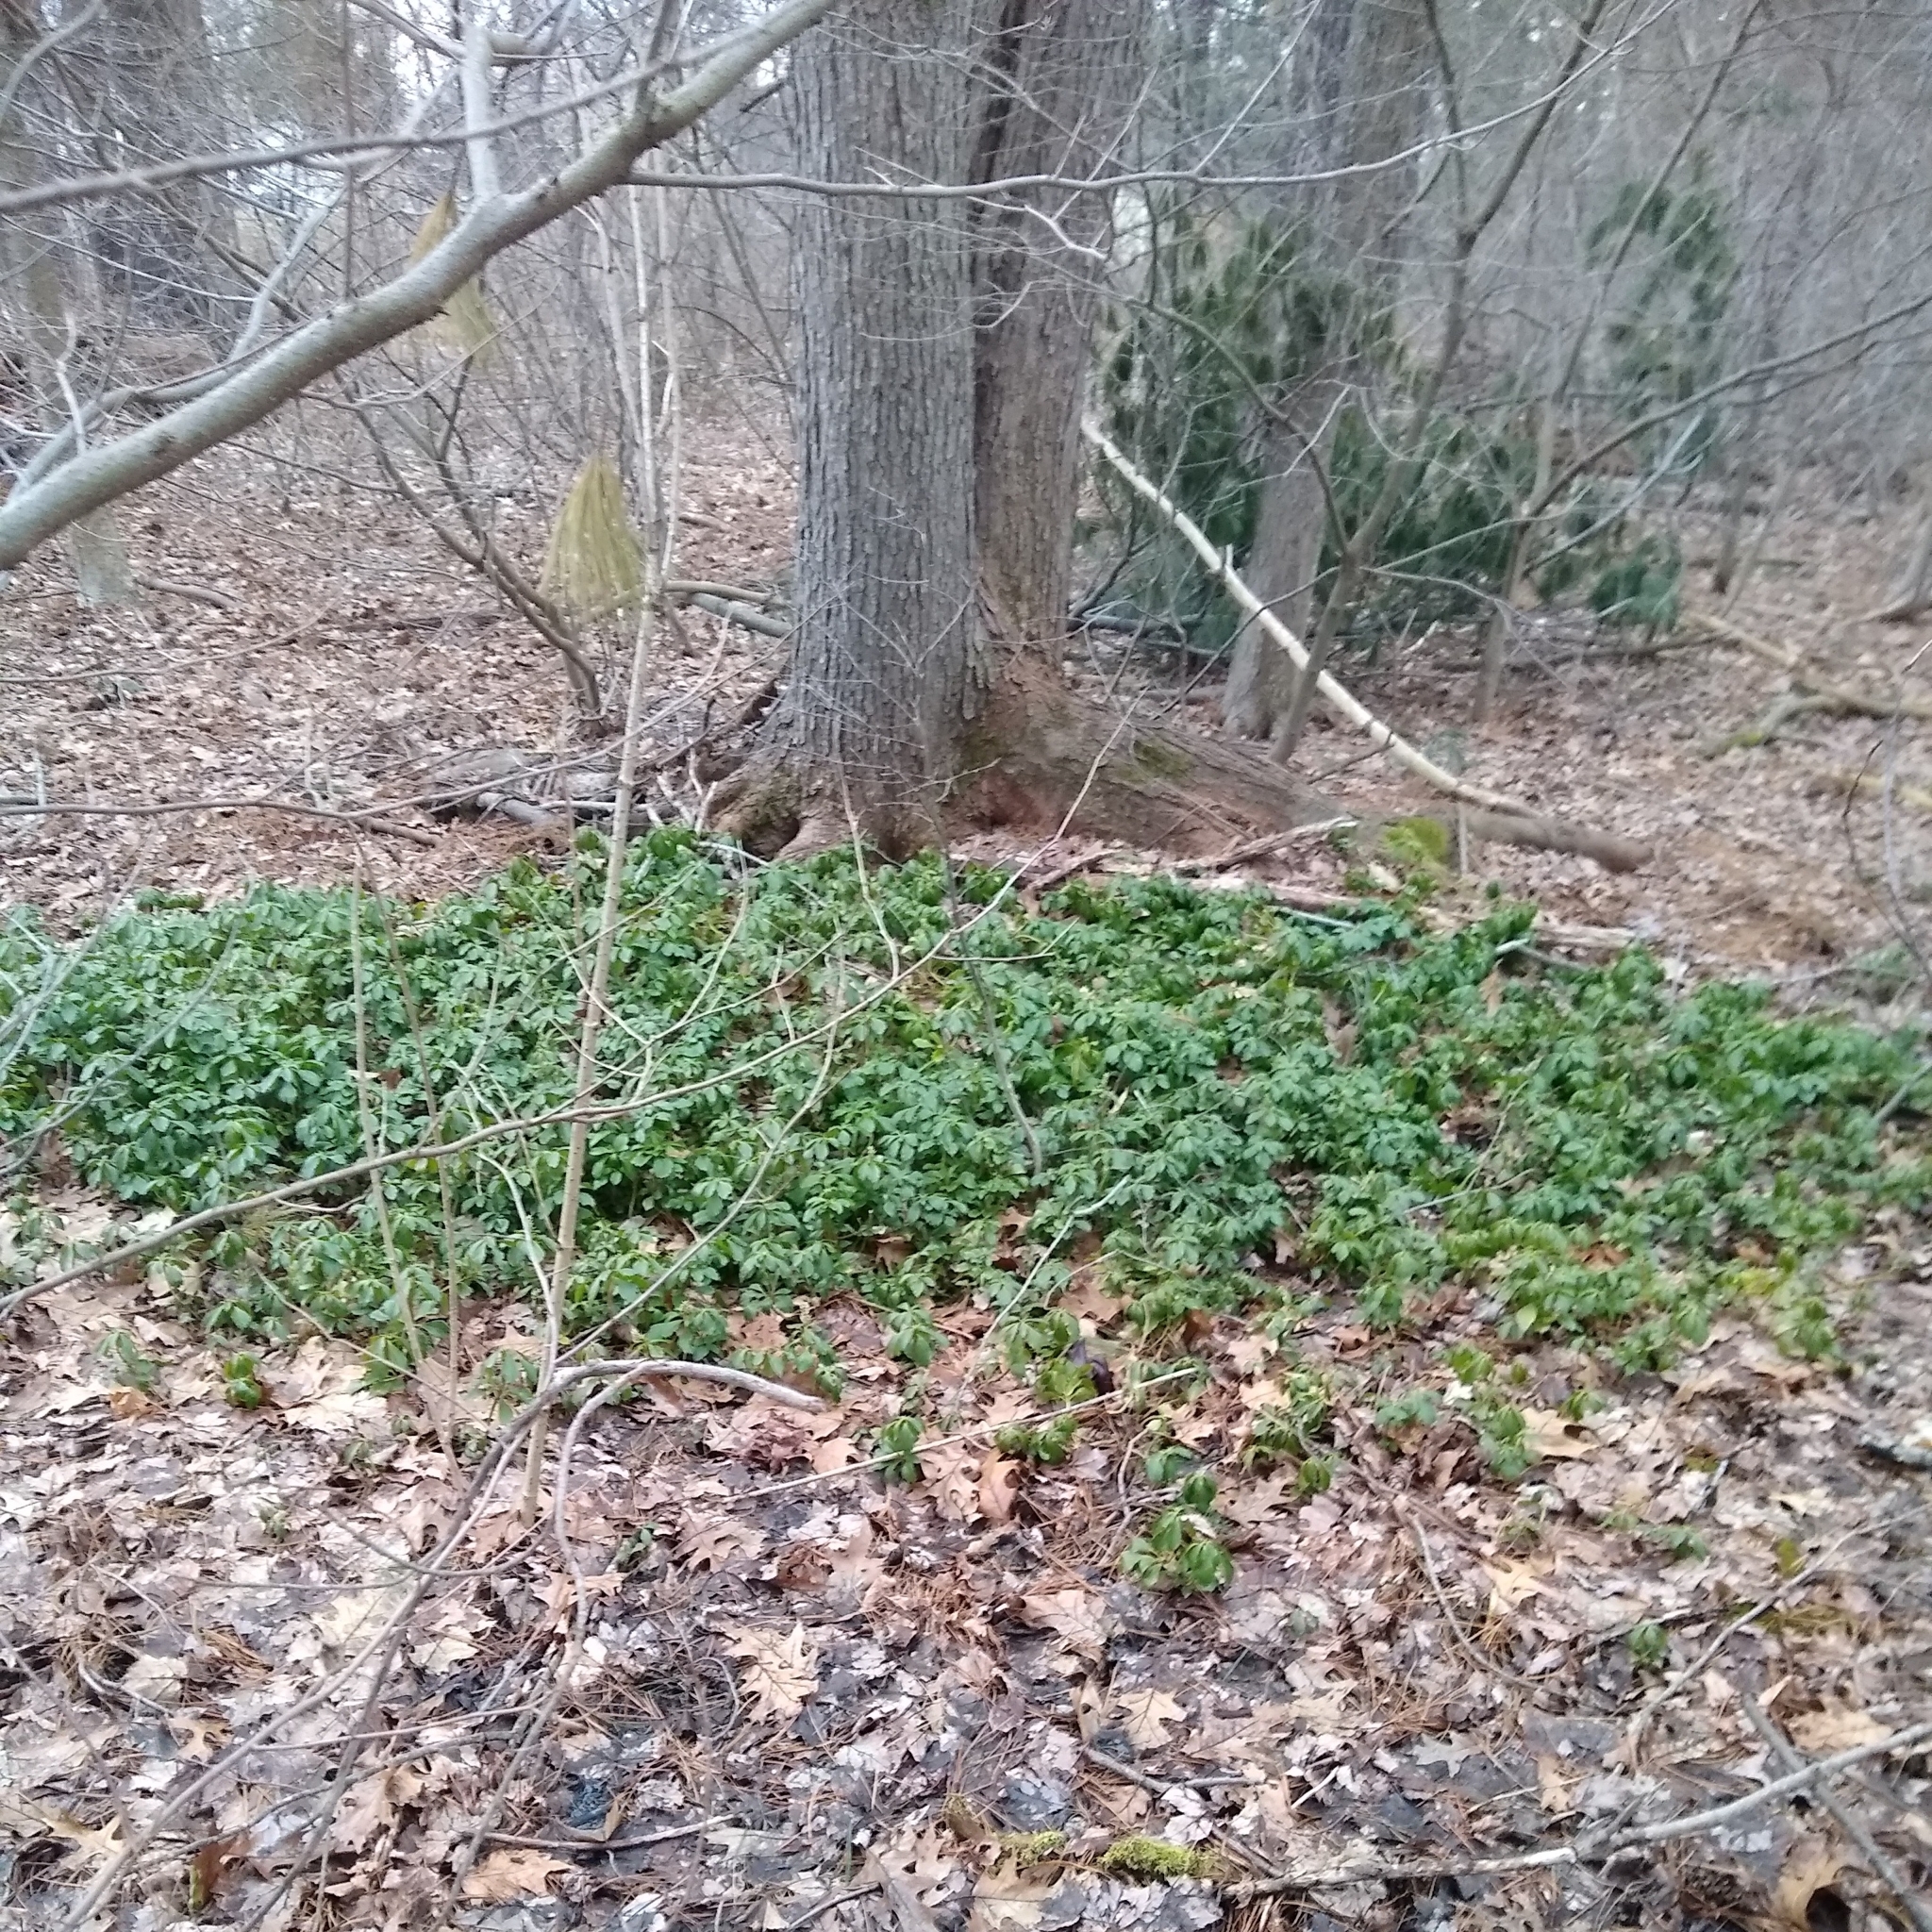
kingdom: Plantae
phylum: Tracheophyta
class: Magnoliopsida
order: Buxales
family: Buxaceae
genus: Pachysandra
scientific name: Pachysandra terminalis
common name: Japanese pachysandra
